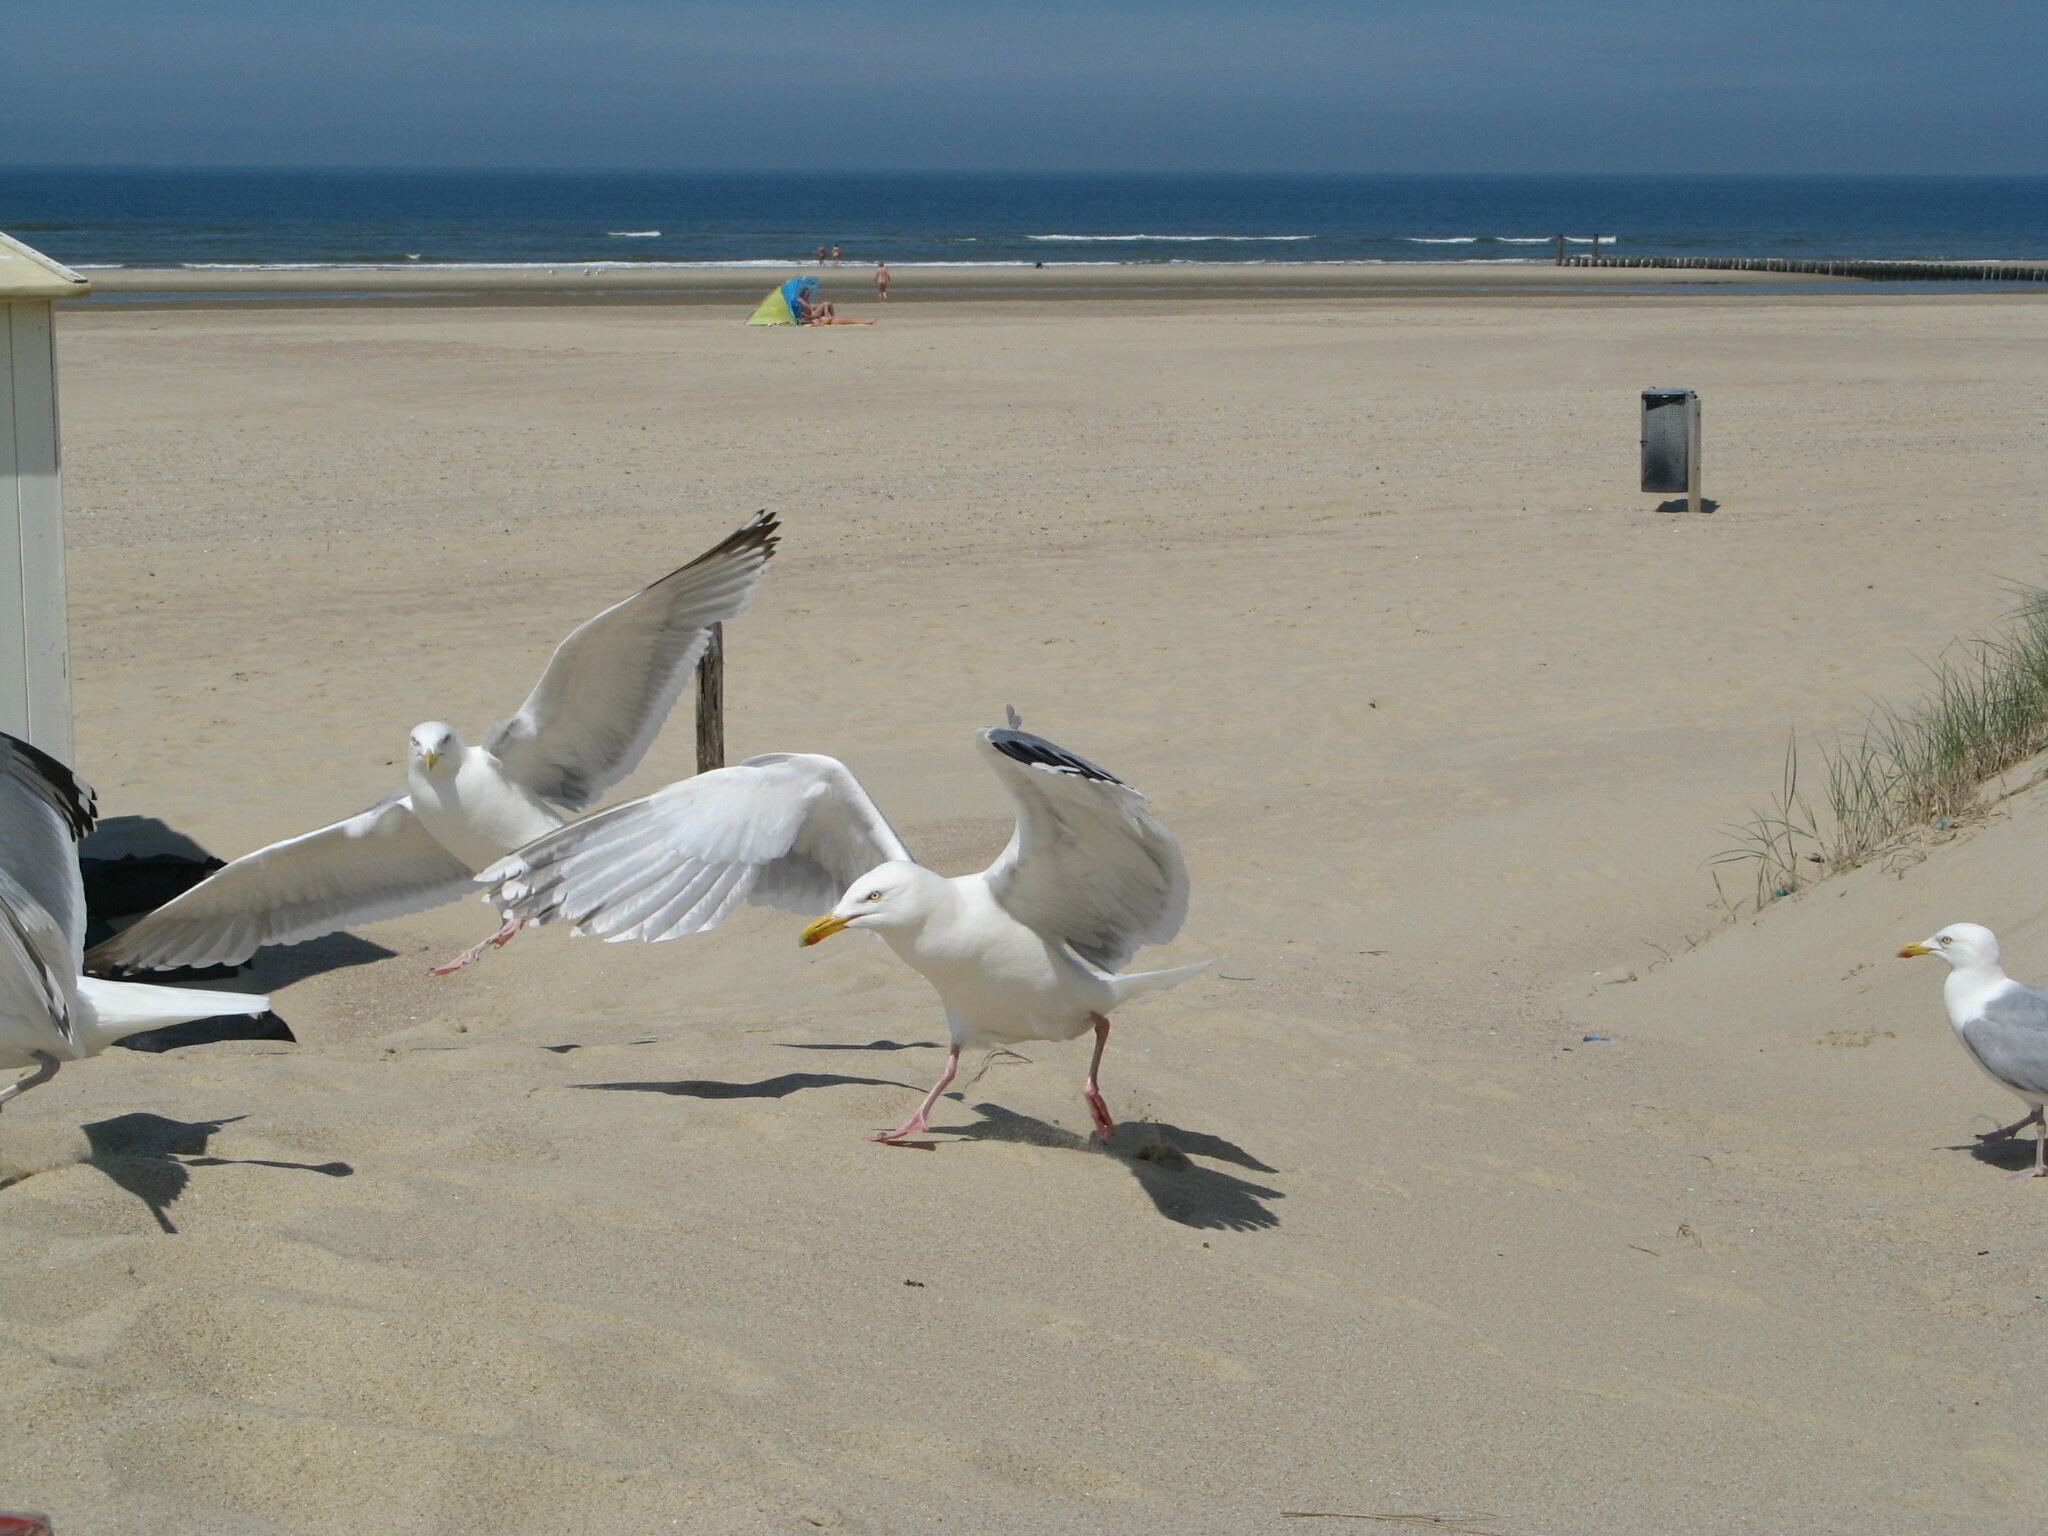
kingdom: Animalia
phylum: Chordata
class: Aves
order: Charadriiformes
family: Laridae
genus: Larus
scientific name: Larus argentatus
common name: Herring gull
